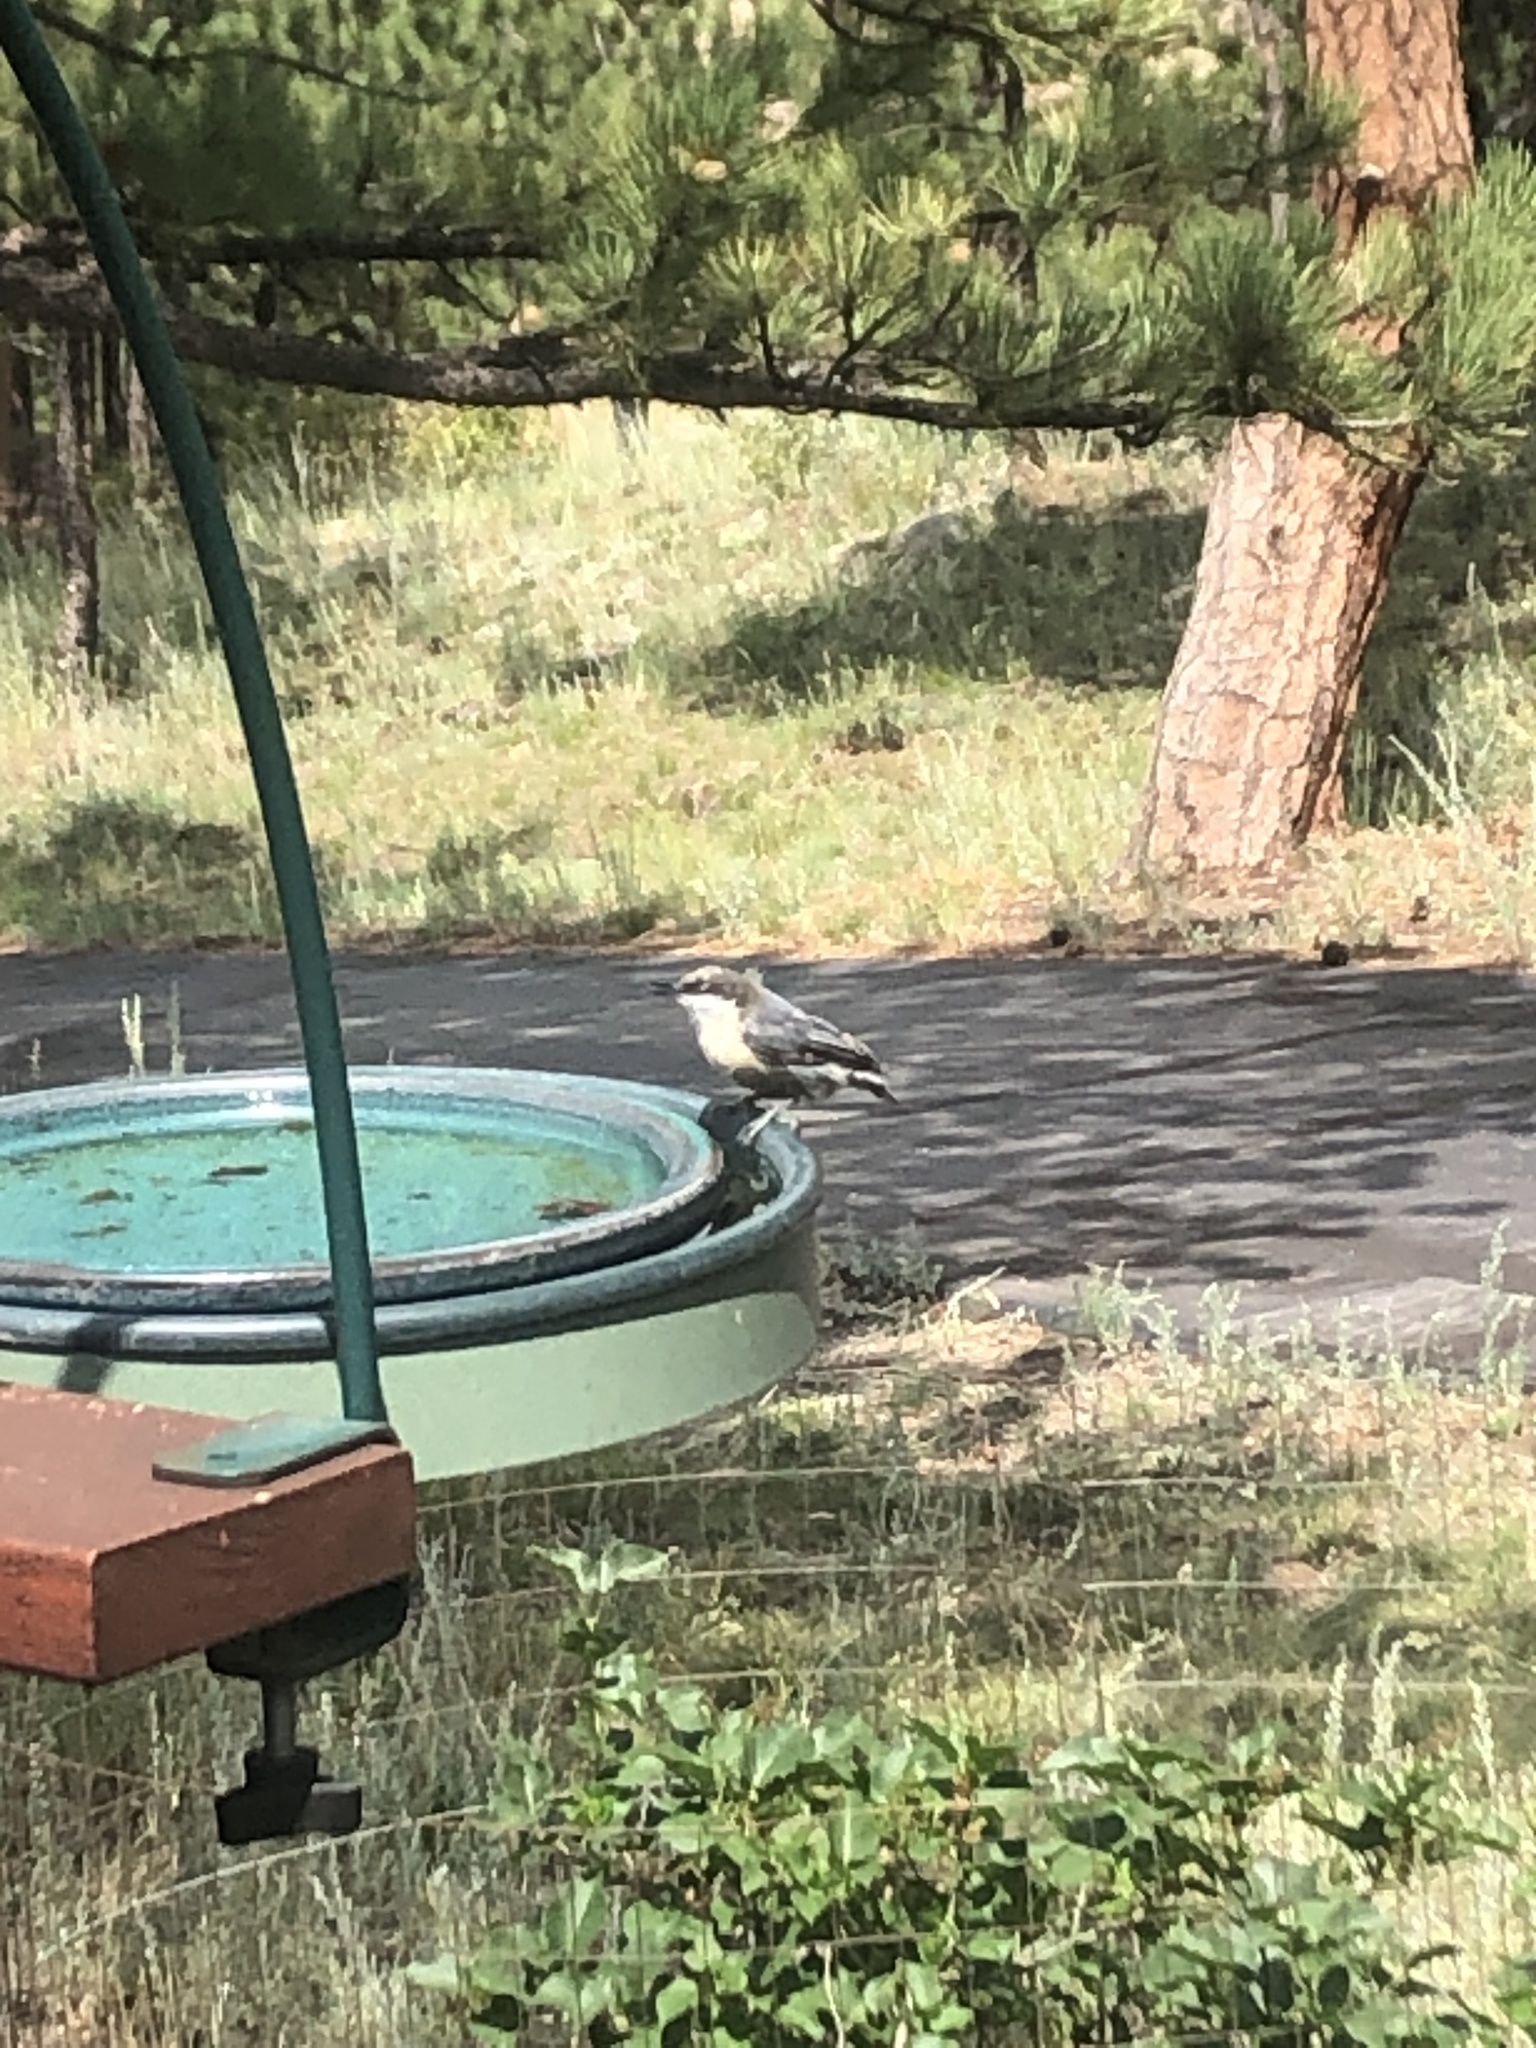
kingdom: Animalia
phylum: Chordata
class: Aves
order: Passeriformes
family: Sittidae
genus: Sitta
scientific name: Sitta pygmaea
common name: Pygmy nuthatch
